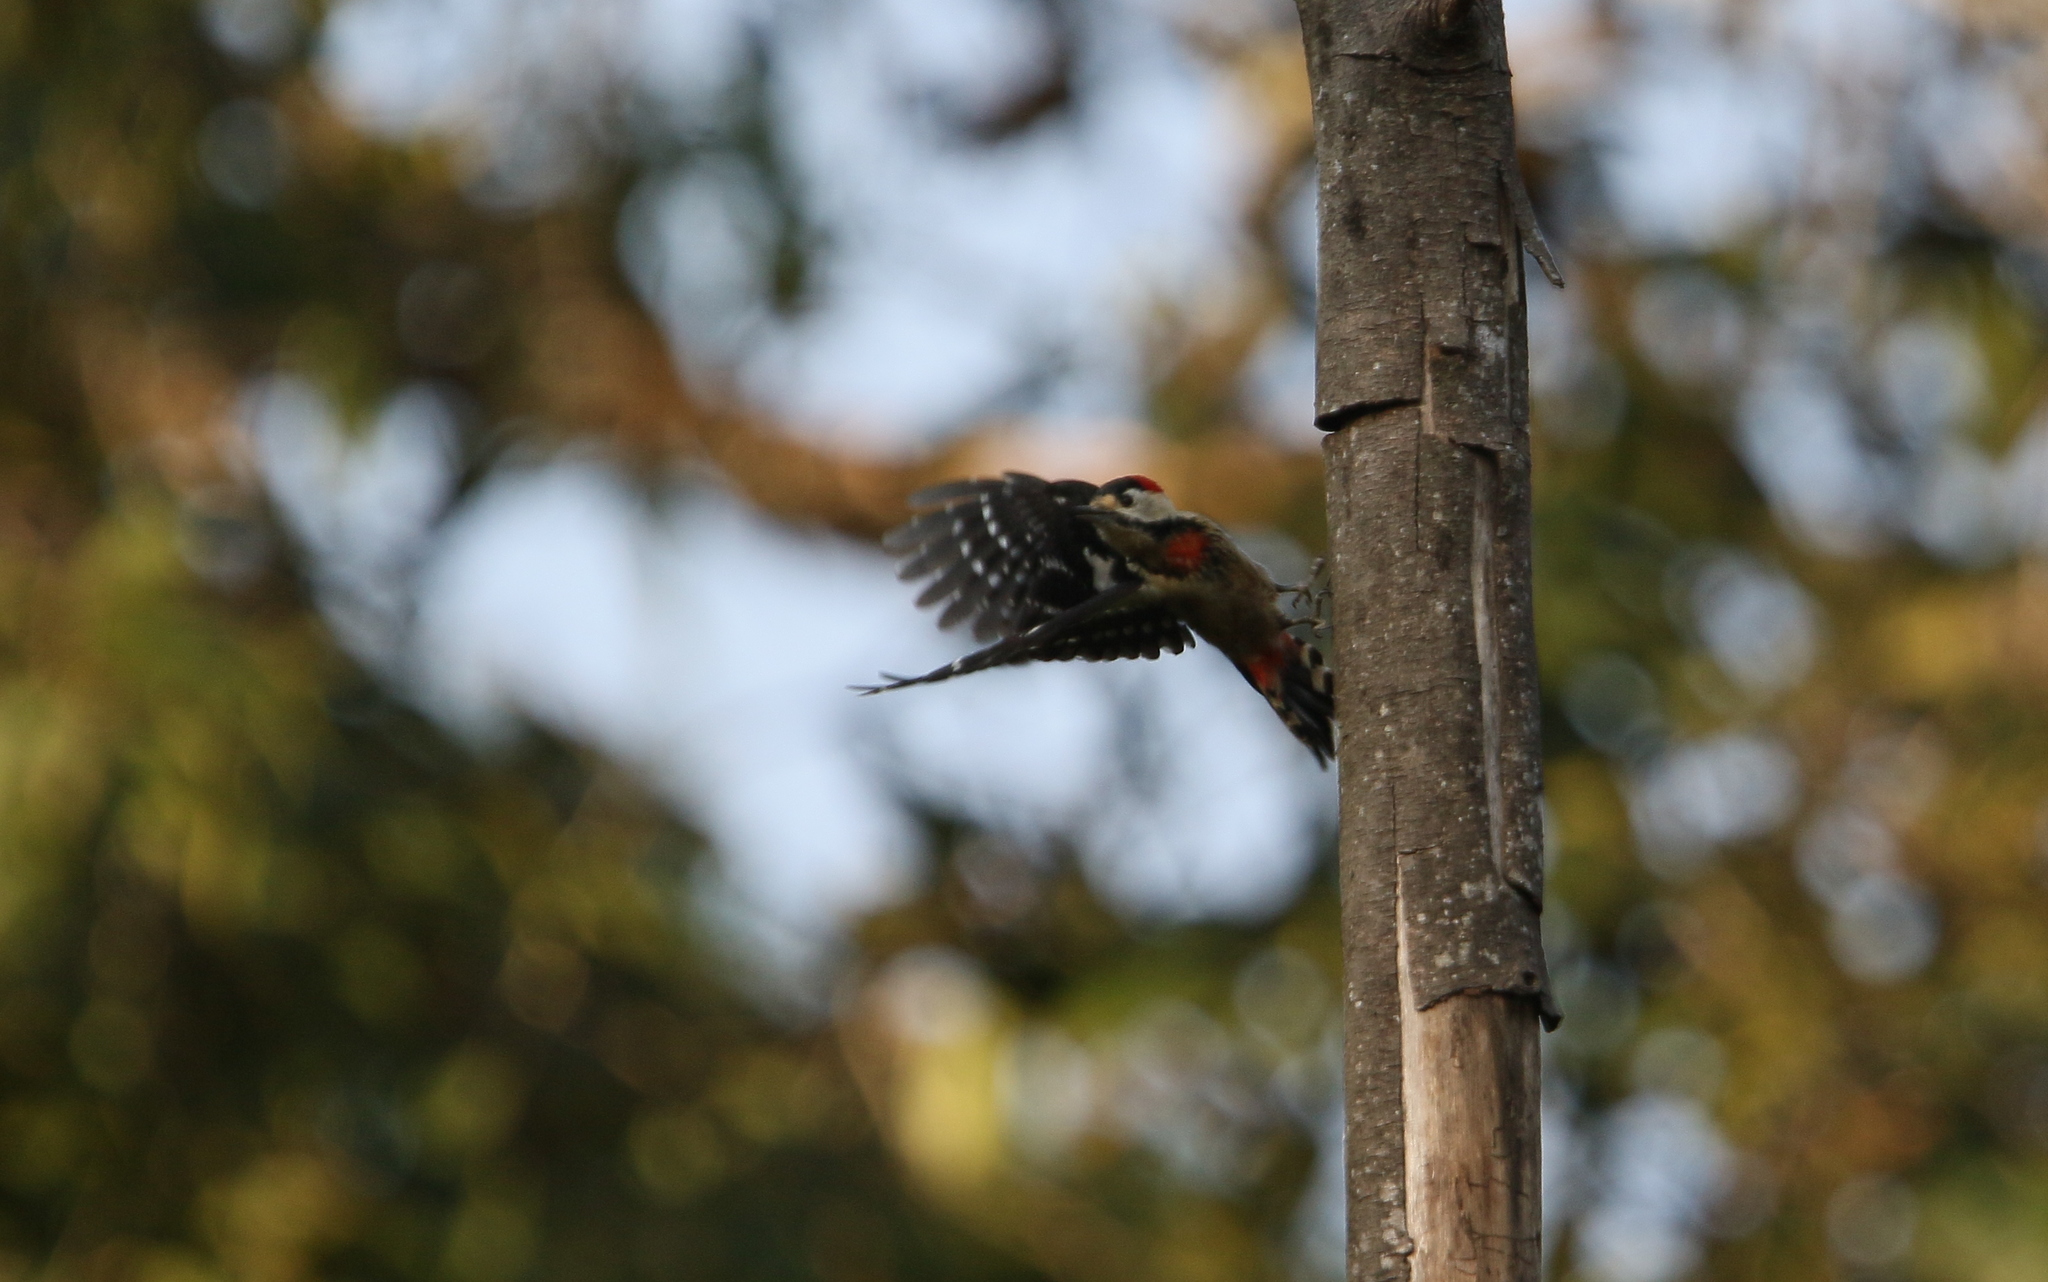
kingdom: Animalia
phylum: Chordata
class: Aves
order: Piciformes
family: Picidae
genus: Dryobates
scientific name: Dryobates cathpharius
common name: Crimson-breasted woodpecker
